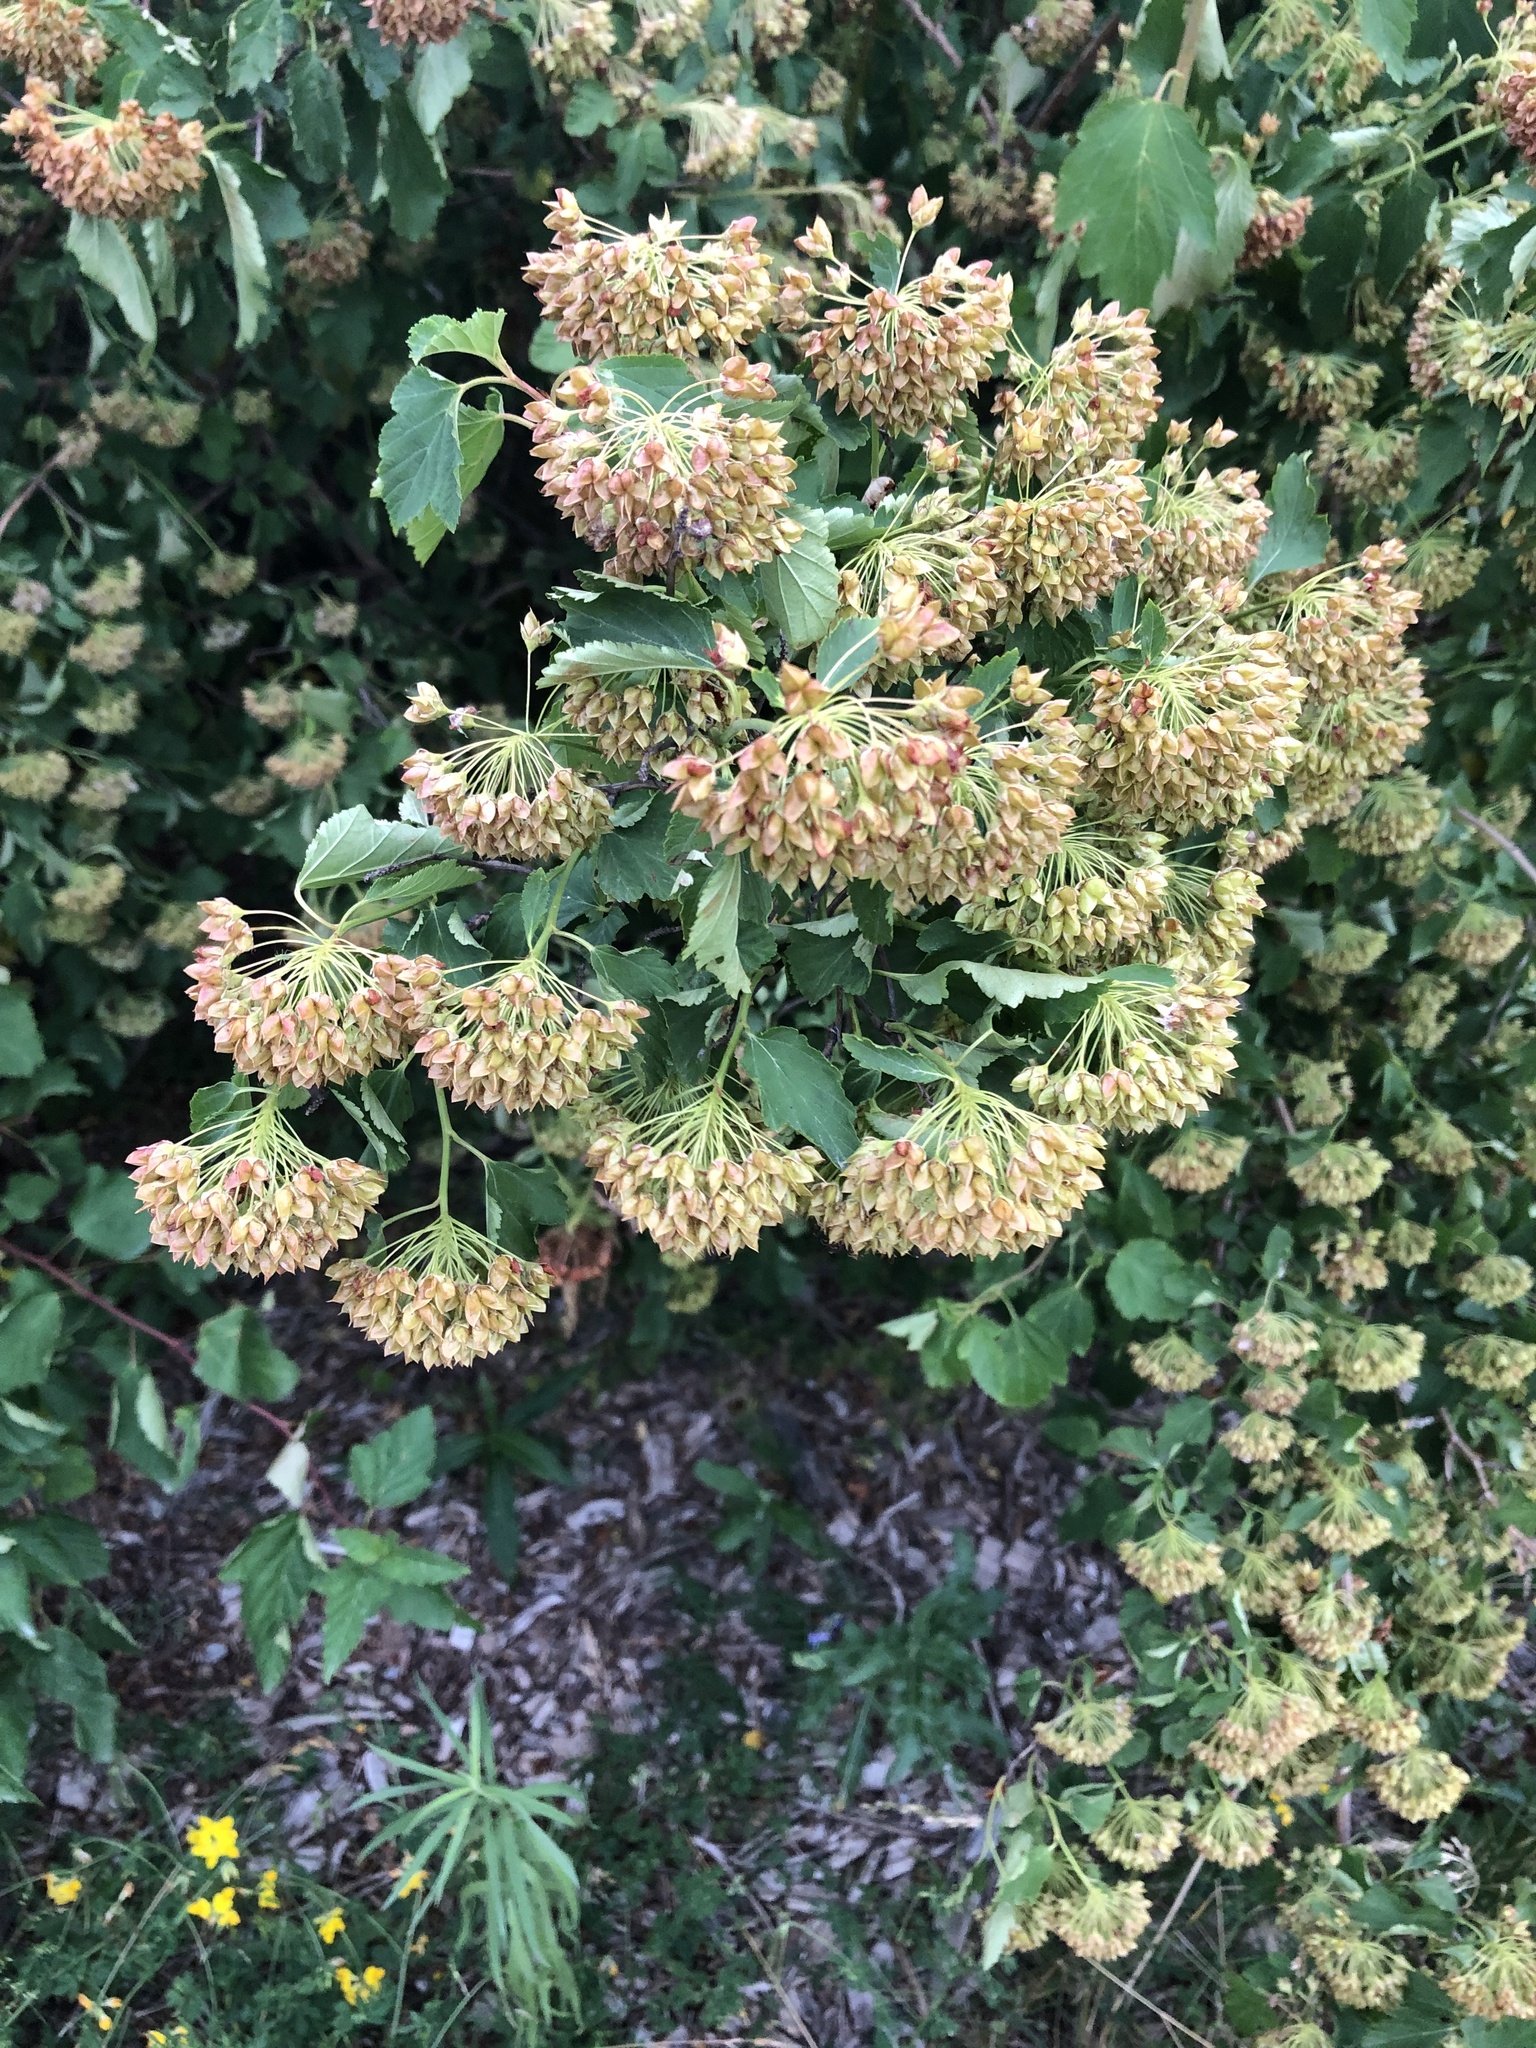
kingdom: Plantae
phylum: Tracheophyta
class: Magnoliopsida
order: Rosales
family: Rosaceae
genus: Physocarpus
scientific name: Physocarpus opulifolius
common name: Ninebark
